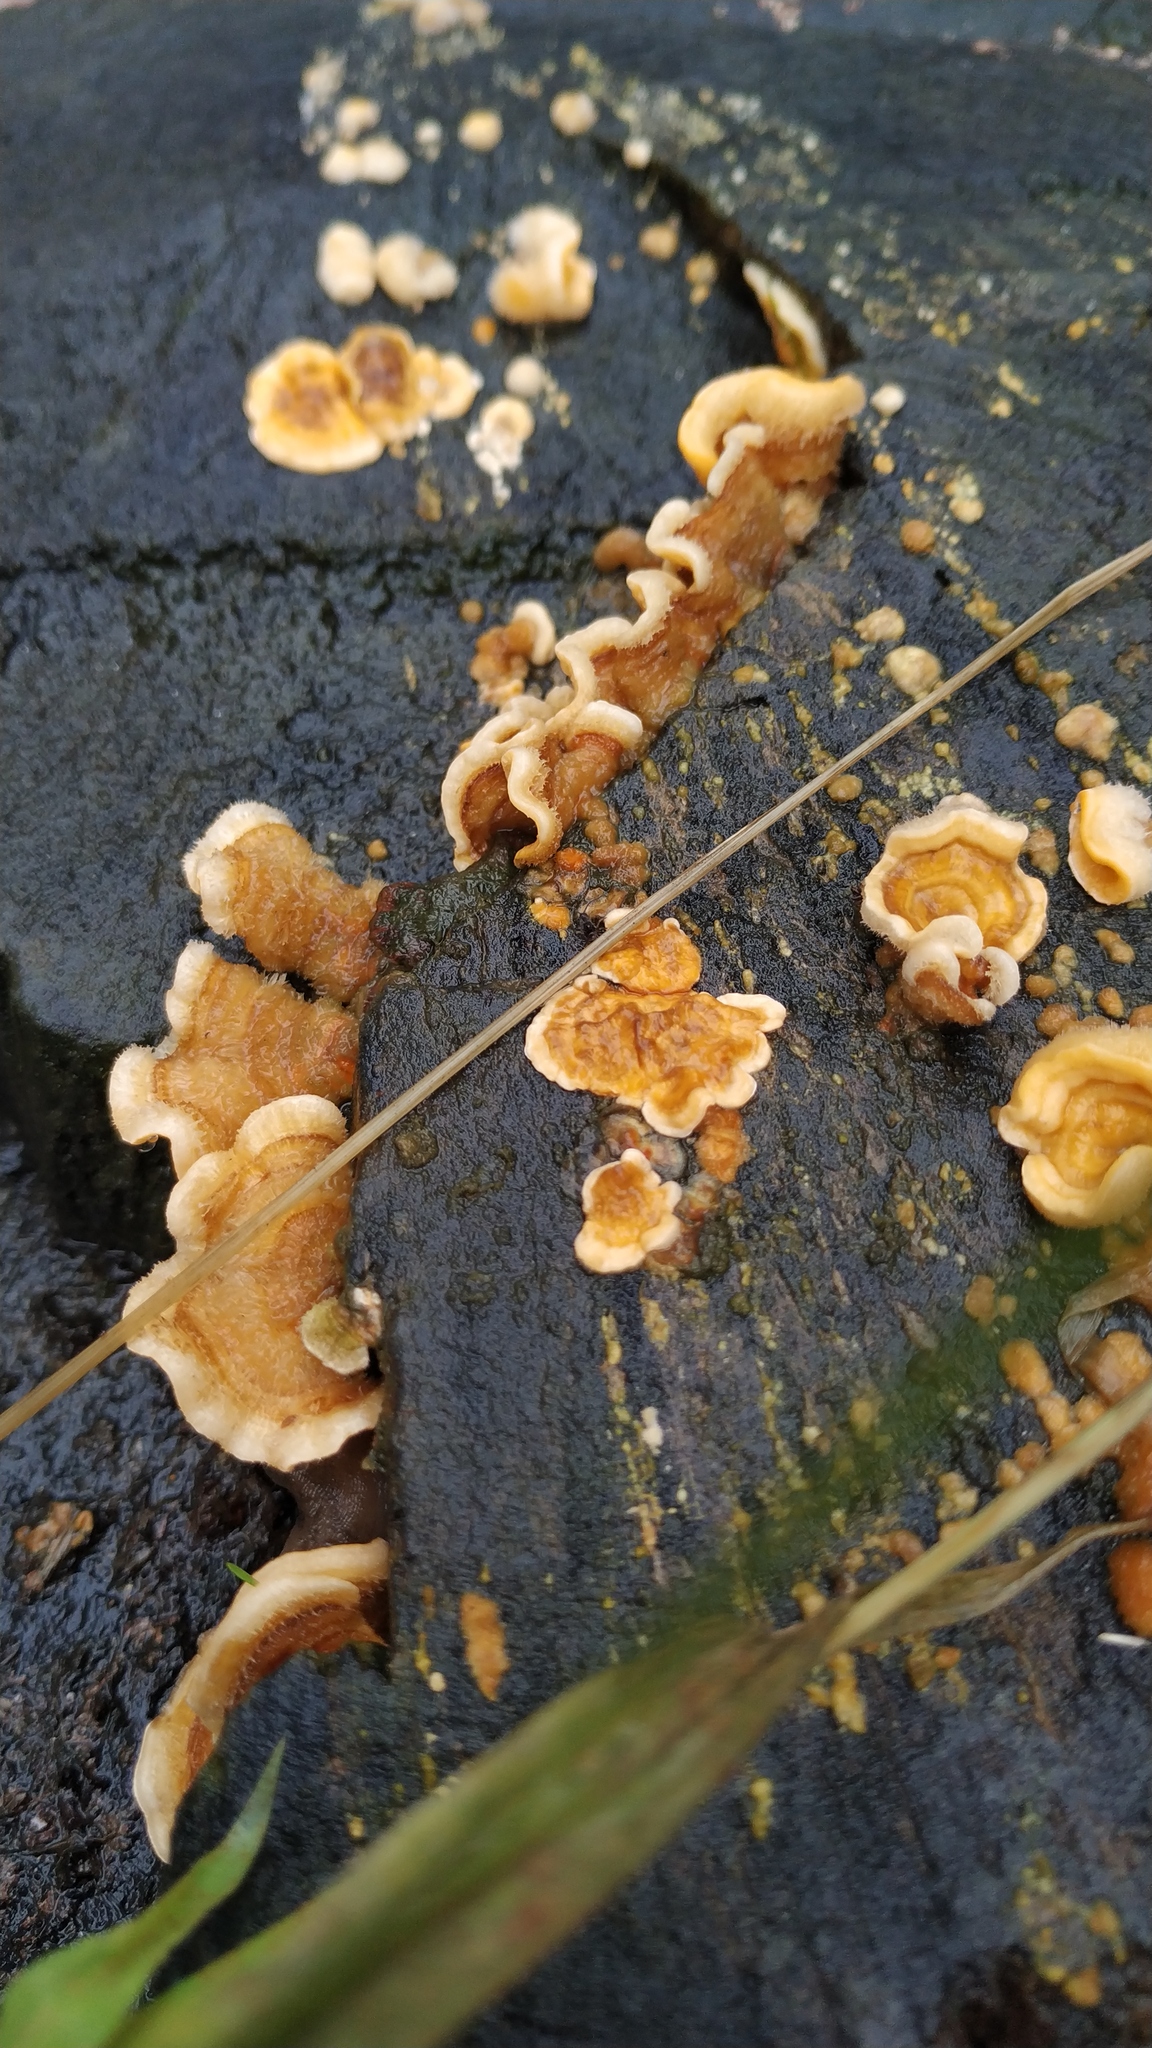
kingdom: Fungi
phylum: Basidiomycota
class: Agaricomycetes
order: Russulales
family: Stereaceae
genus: Stereum
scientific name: Stereum hirsutum
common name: Hairy curtain crust
